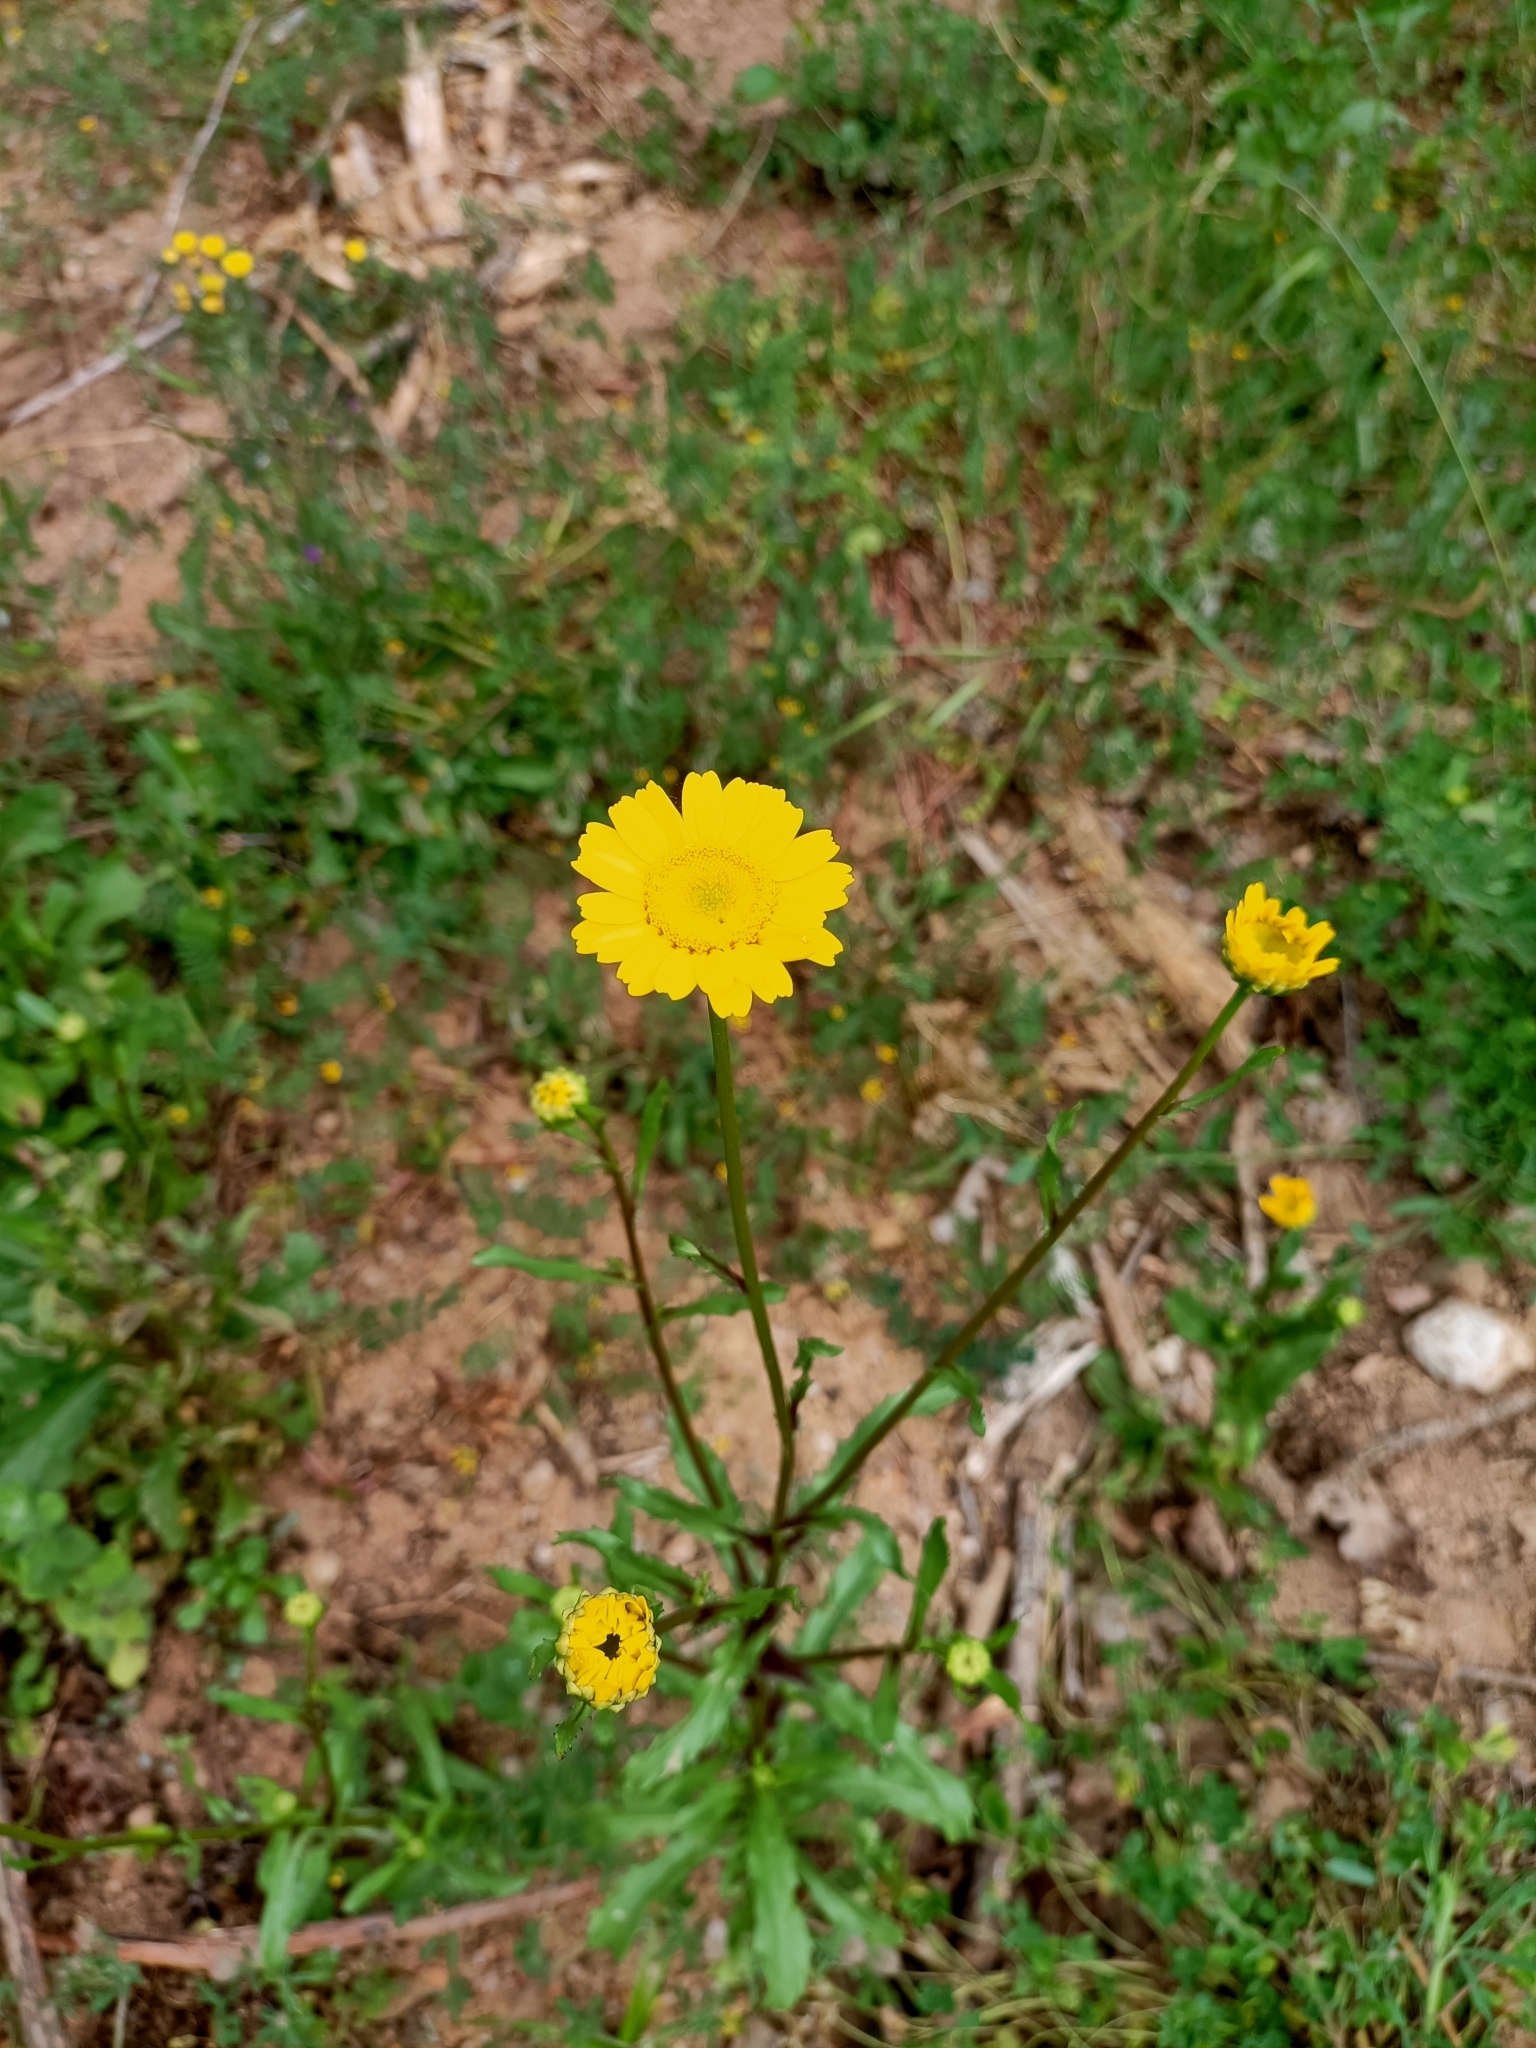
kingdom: Plantae
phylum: Tracheophyta
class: Magnoliopsida
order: Asterales
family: Asteraceae
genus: Coleostephus
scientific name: Coleostephus myconis
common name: Mediterranean marigold
